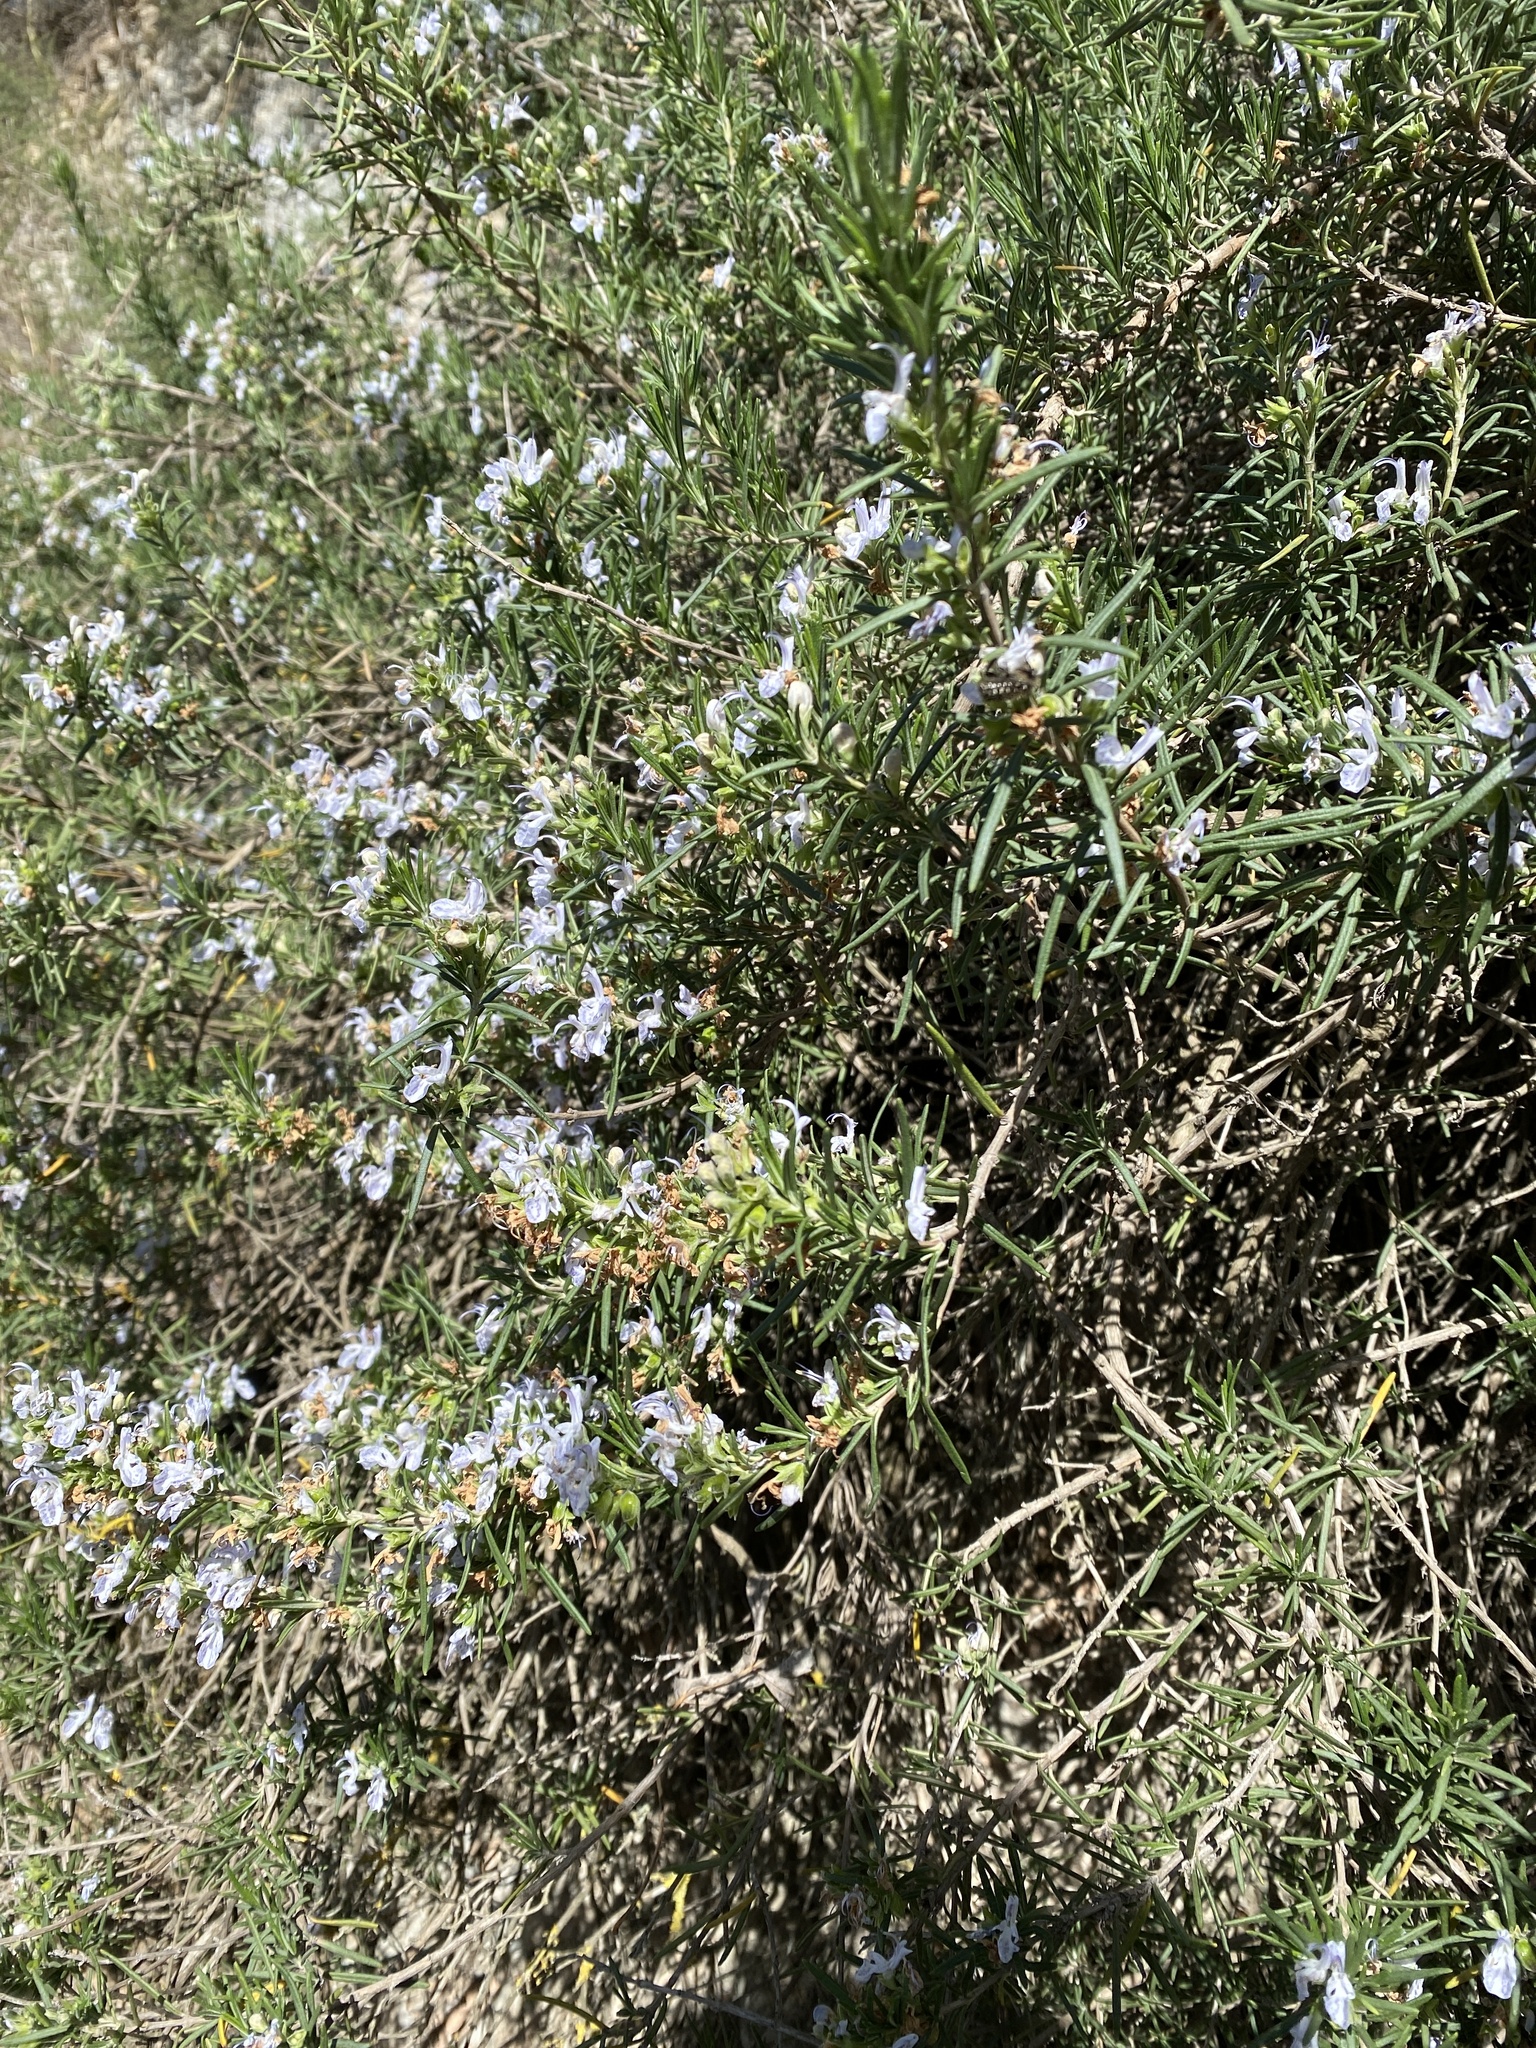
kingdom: Plantae
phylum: Tracheophyta
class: Magnoliopsida
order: Lamiales
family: Lamiaceae
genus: Salvia
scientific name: Salvia rosmarinus
